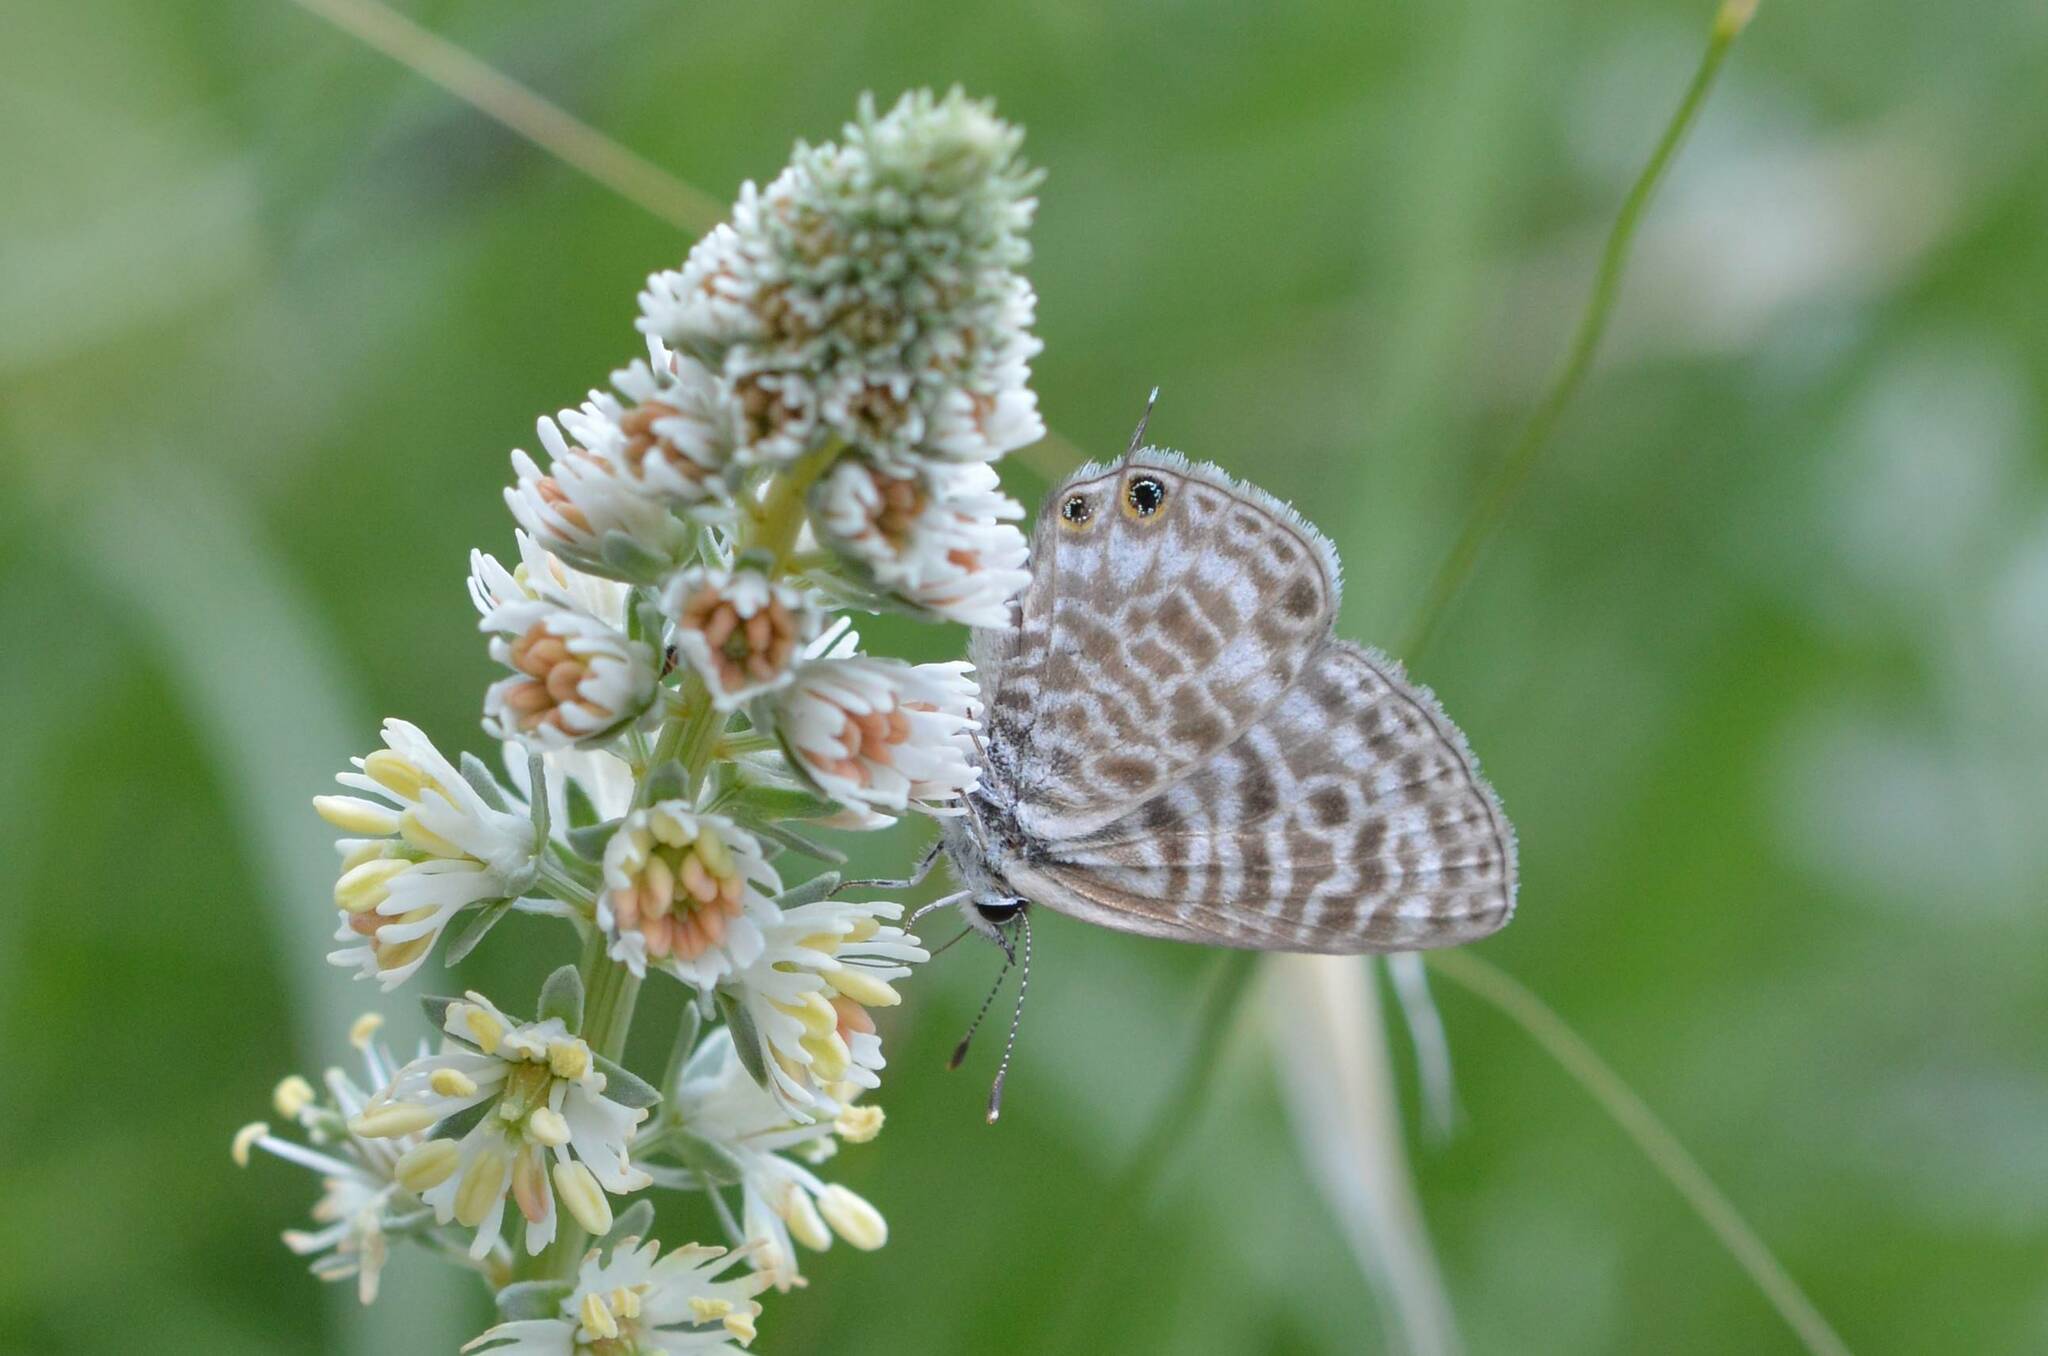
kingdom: Animalia
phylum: Arthropoda
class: Insecta
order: Lepidoptera
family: Lycaenidae
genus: Leptotes
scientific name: Leptotes pirithous
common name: Lang's short-tailed blue
